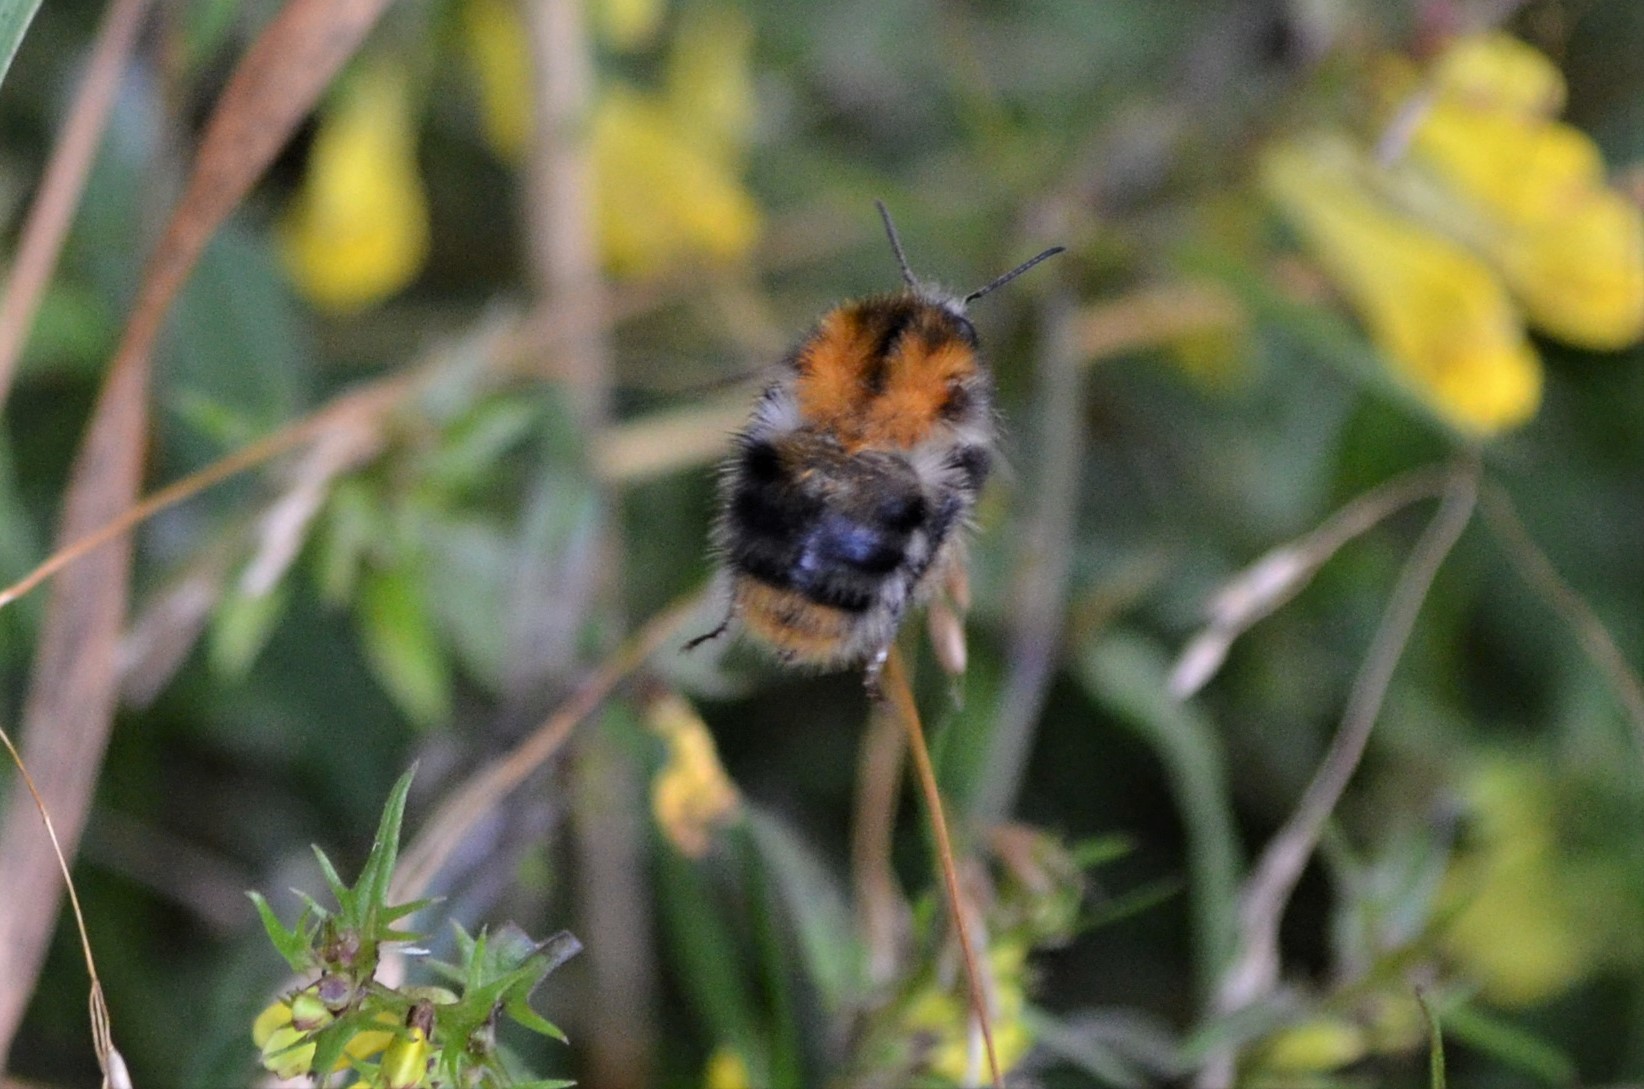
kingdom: Animalia
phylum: Arthropoda
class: Insecta
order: Hymenoptera
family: Apidae
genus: Bombus
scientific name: Bombus pascuorum
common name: Common carder bee
